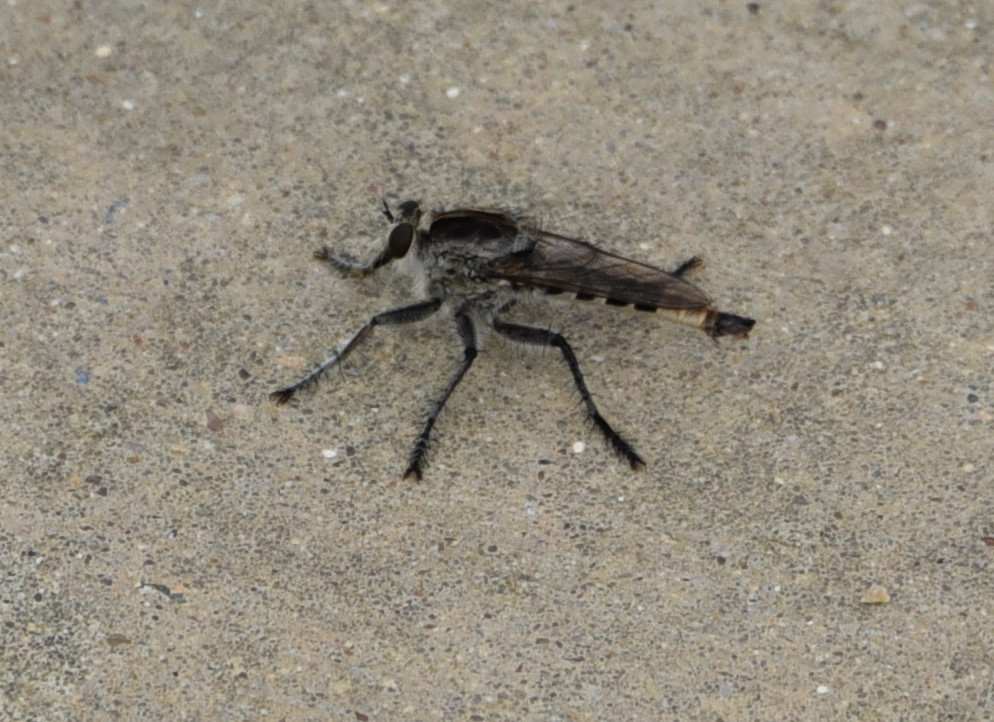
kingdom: Animalia
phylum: Arthropoda
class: Insecta
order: Diptera
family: Asilidae
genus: Triorla
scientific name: Triorla interrupta
